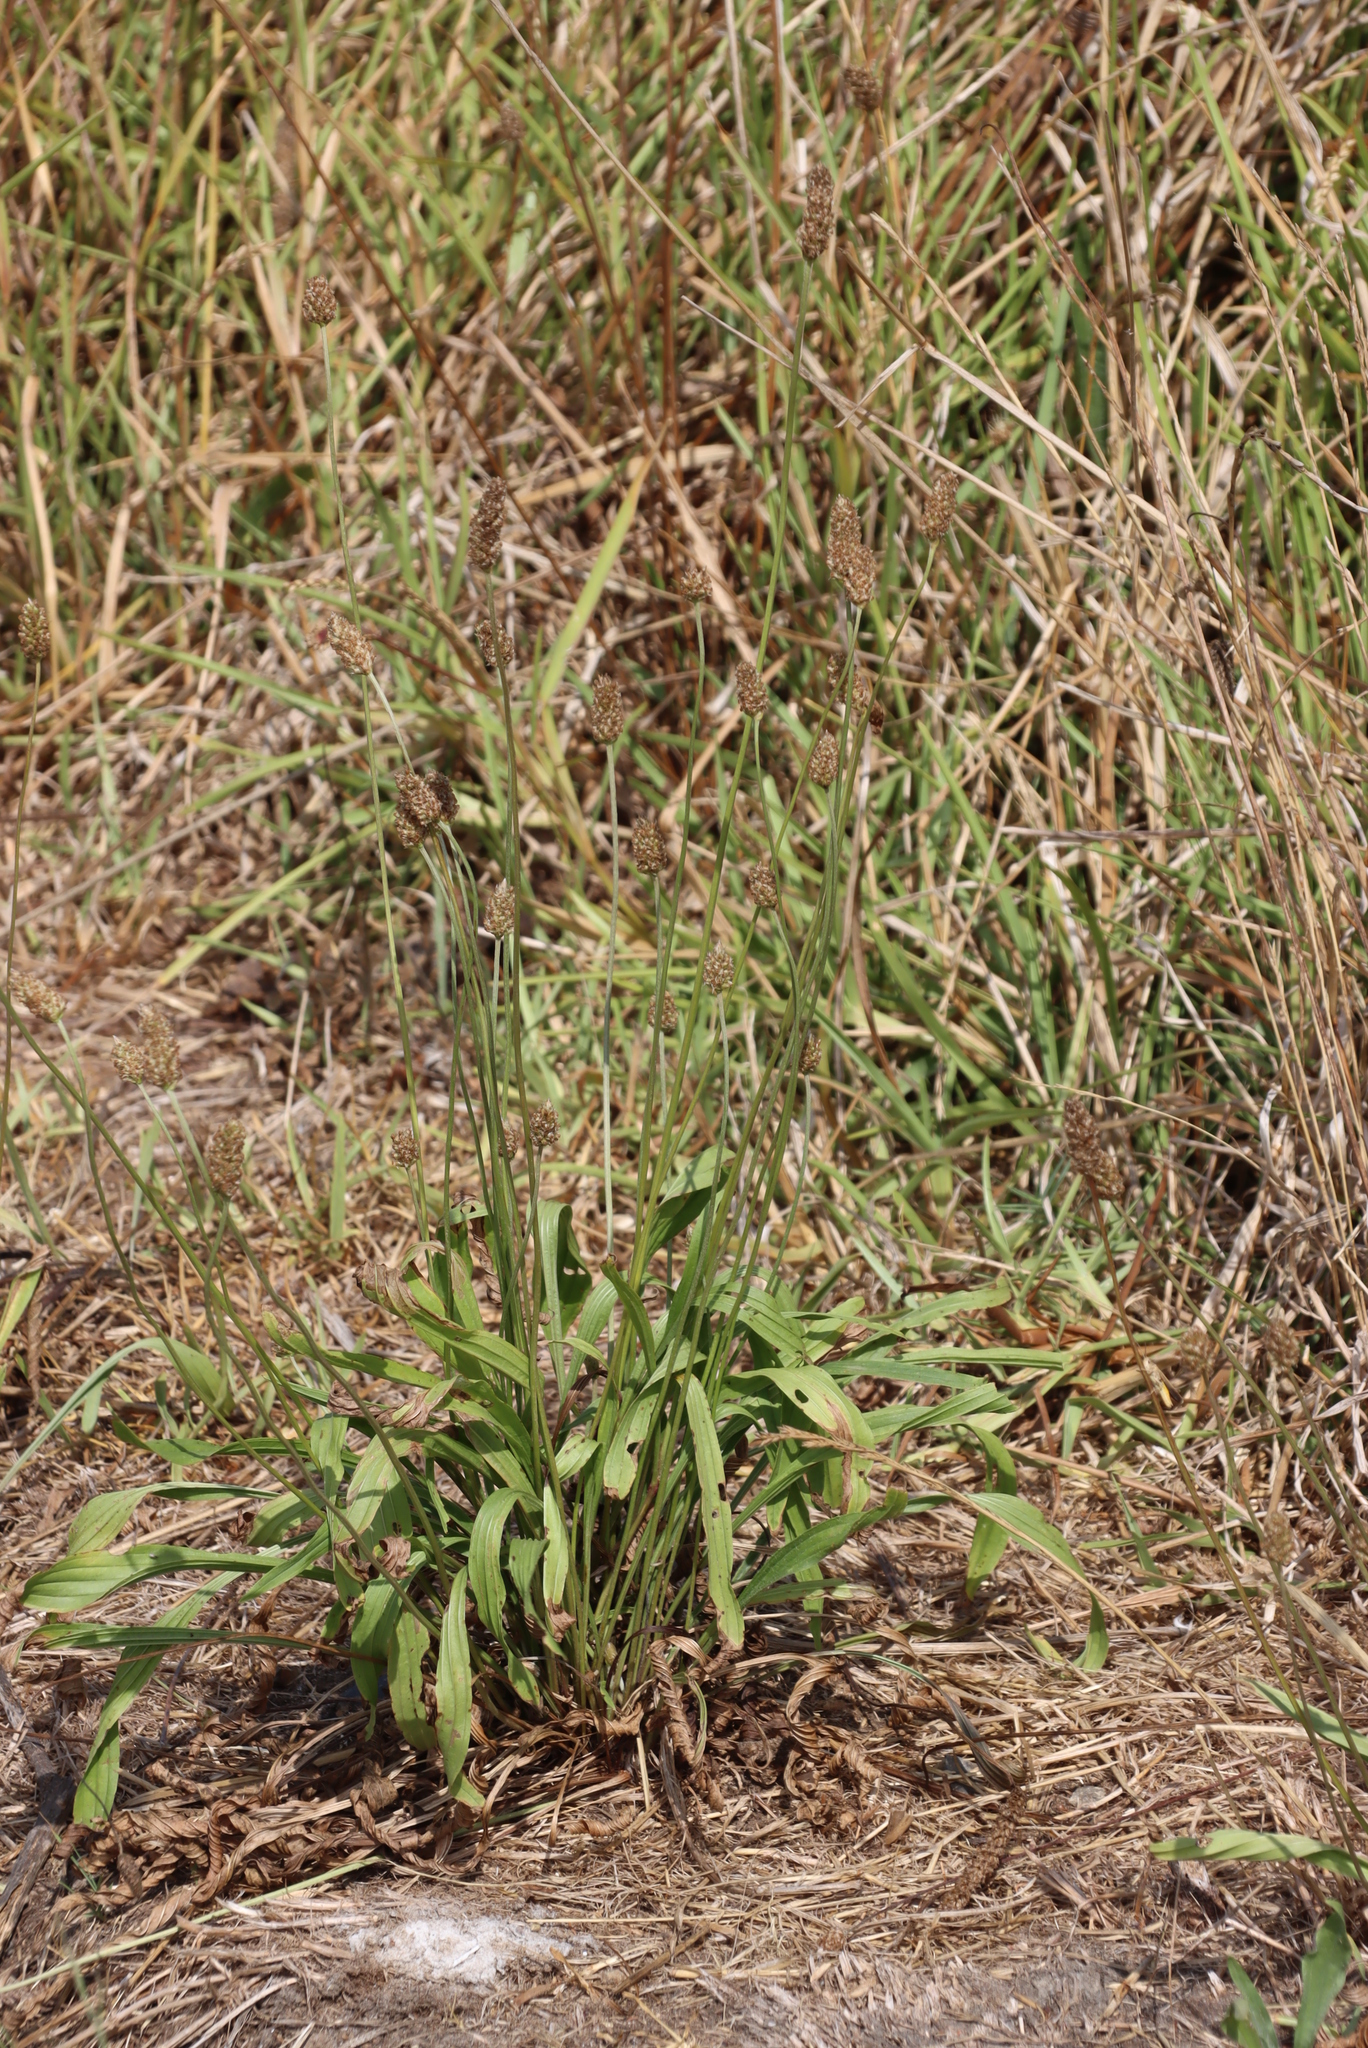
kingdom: Plantae
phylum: Tracheophyta
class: Magnoliopsida
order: Lamiales
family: Plantaginaceae
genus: Plantago
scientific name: Plantago lanceolata
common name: Ribwort plantain
